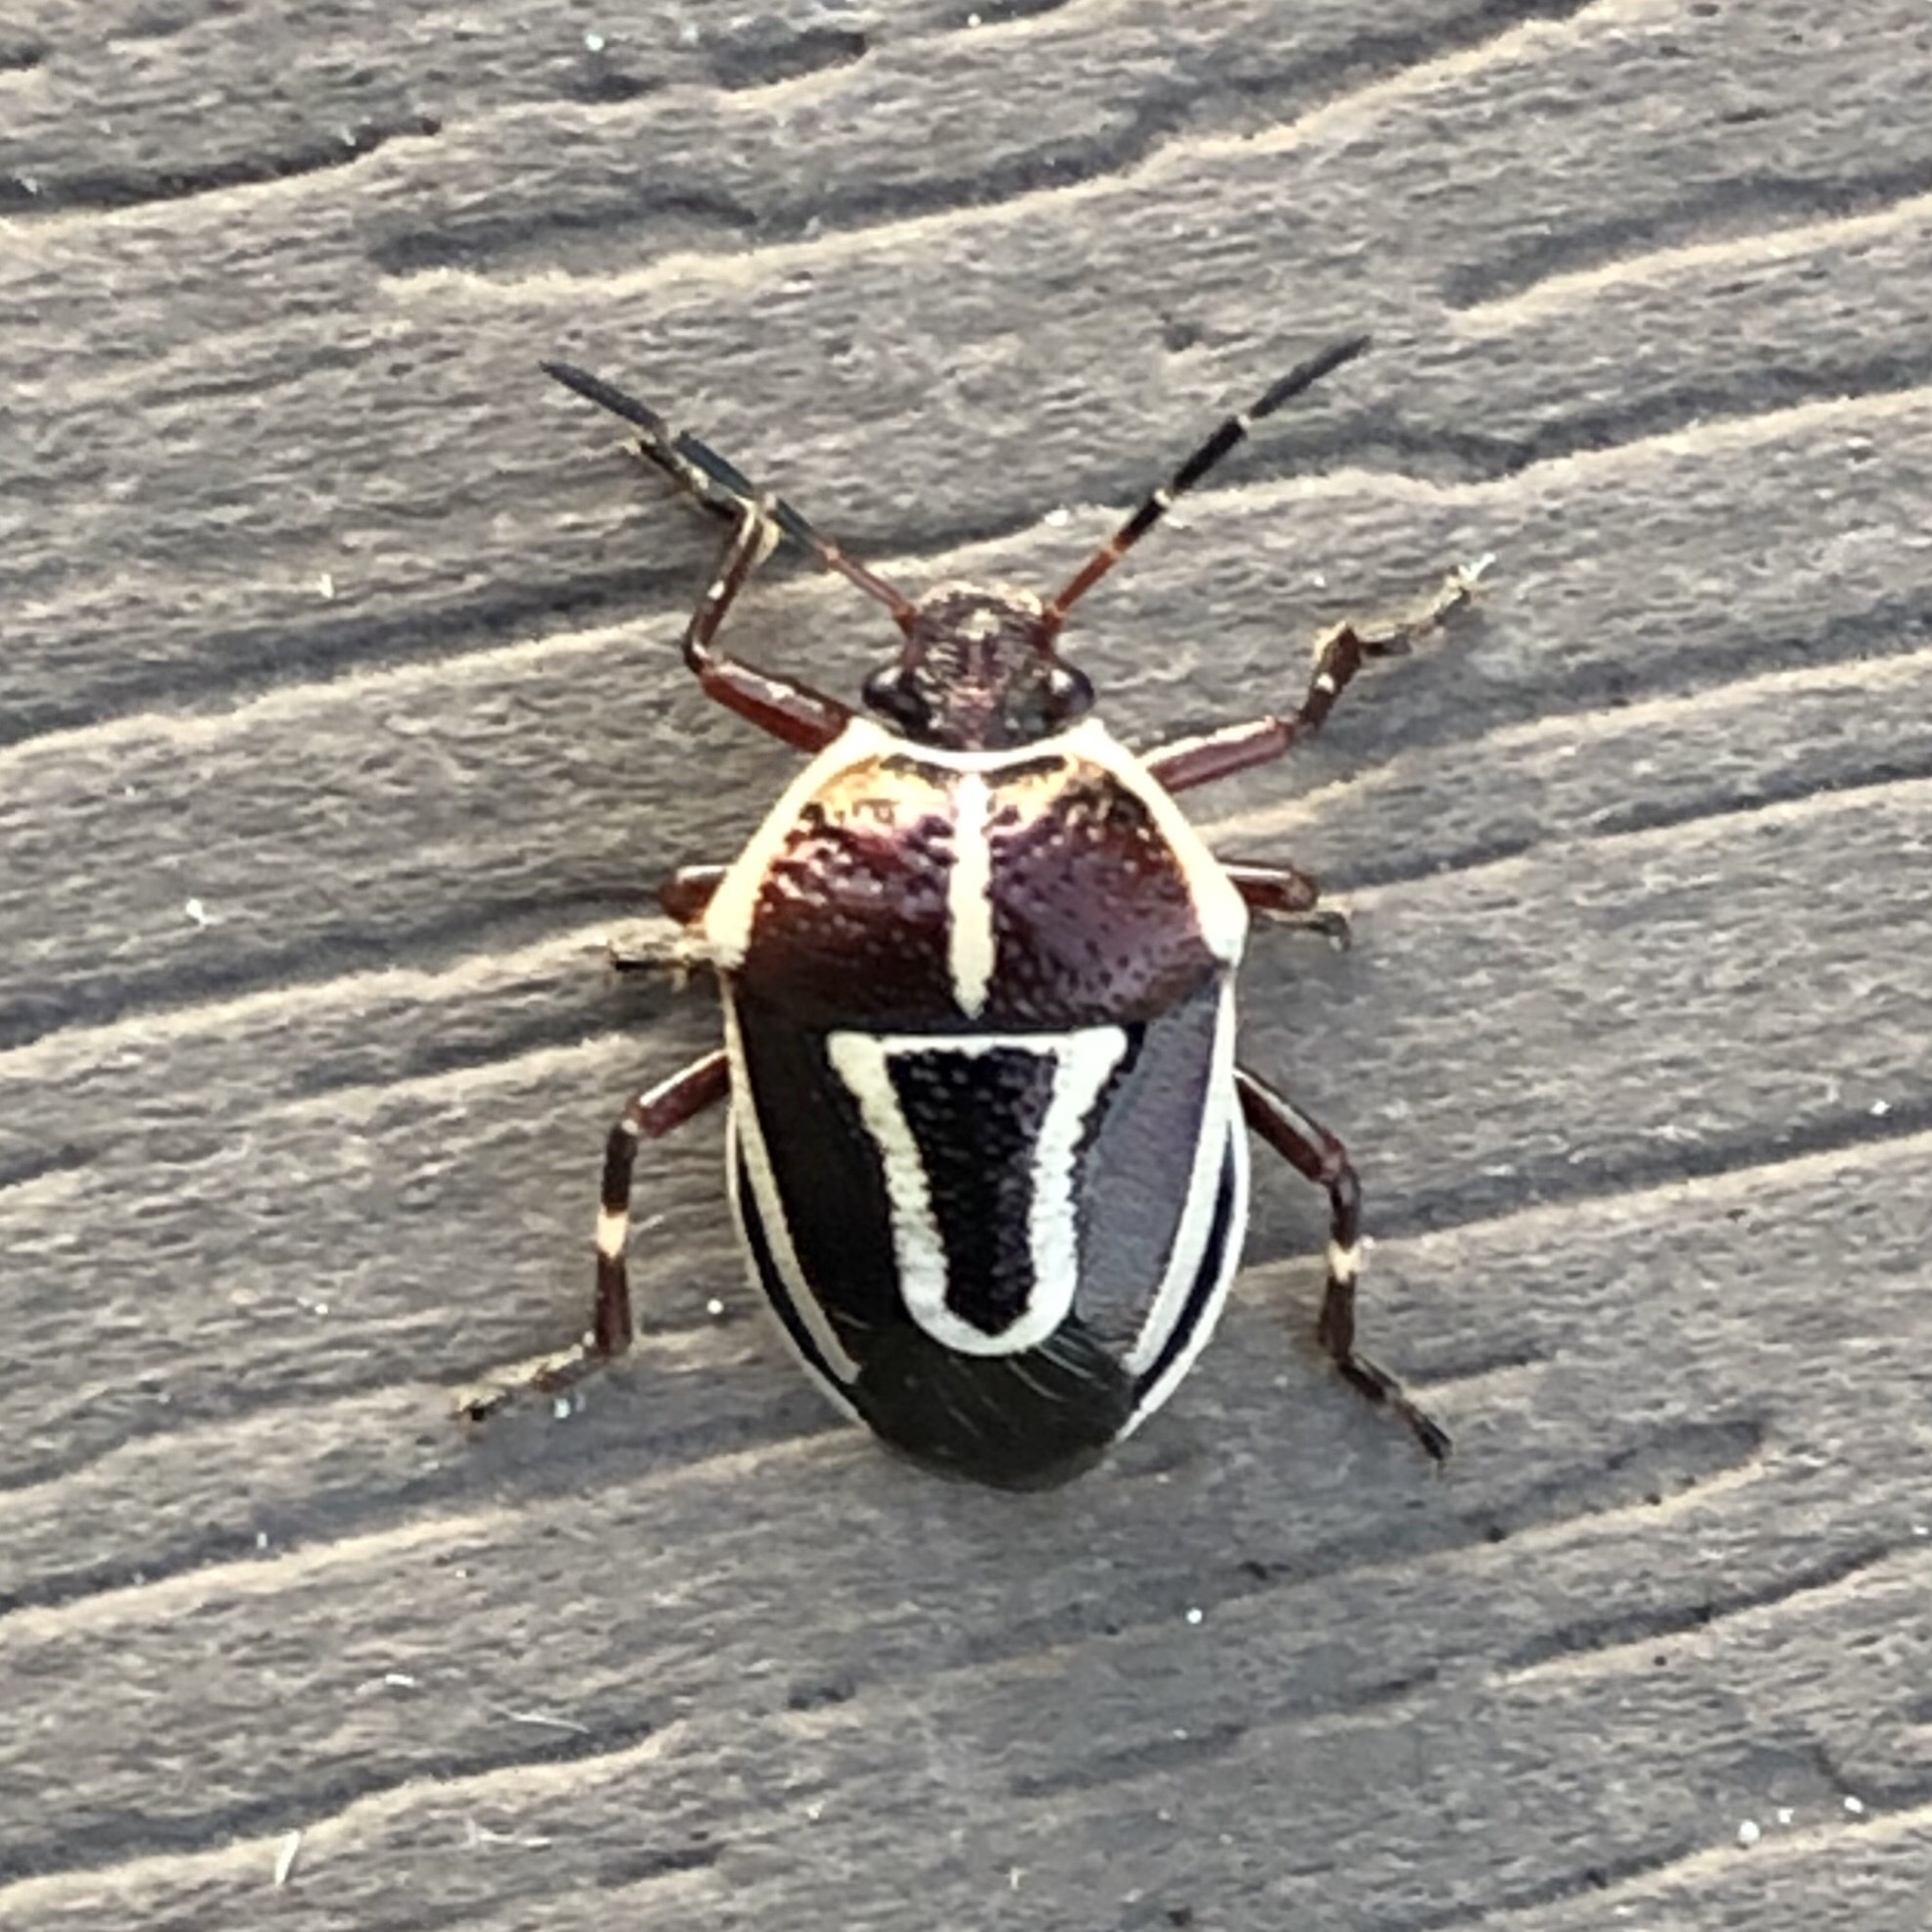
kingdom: Animalia
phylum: Arthropoda
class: Insecta
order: Hemiptera
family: Pentatomidae
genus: Perillus
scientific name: Perillus circumcinctus
